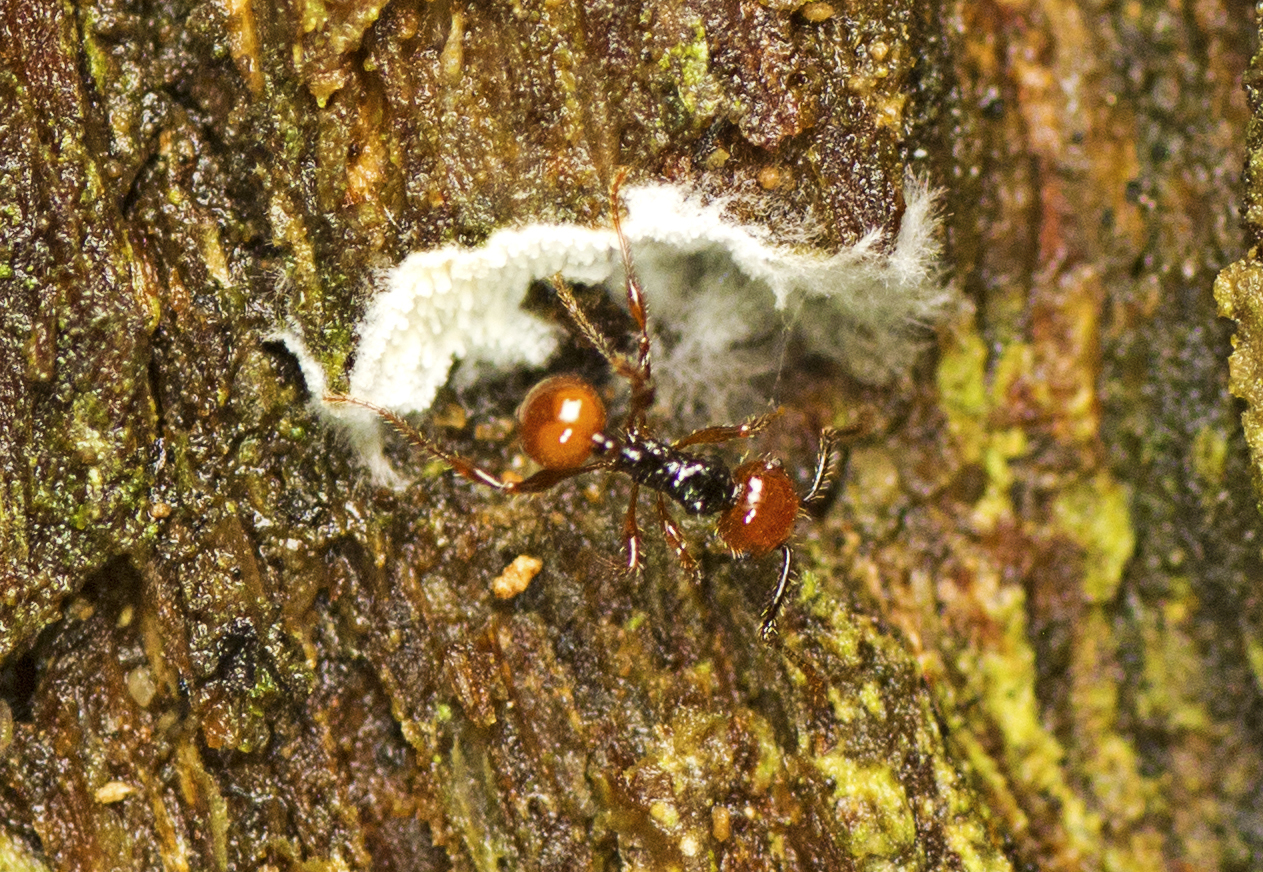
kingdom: Animalia
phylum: Arthropoda
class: Insecta
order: Hymenoptera
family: Formicidae
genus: Pristomyrmex
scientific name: Pristomyrmex quadridentatus
